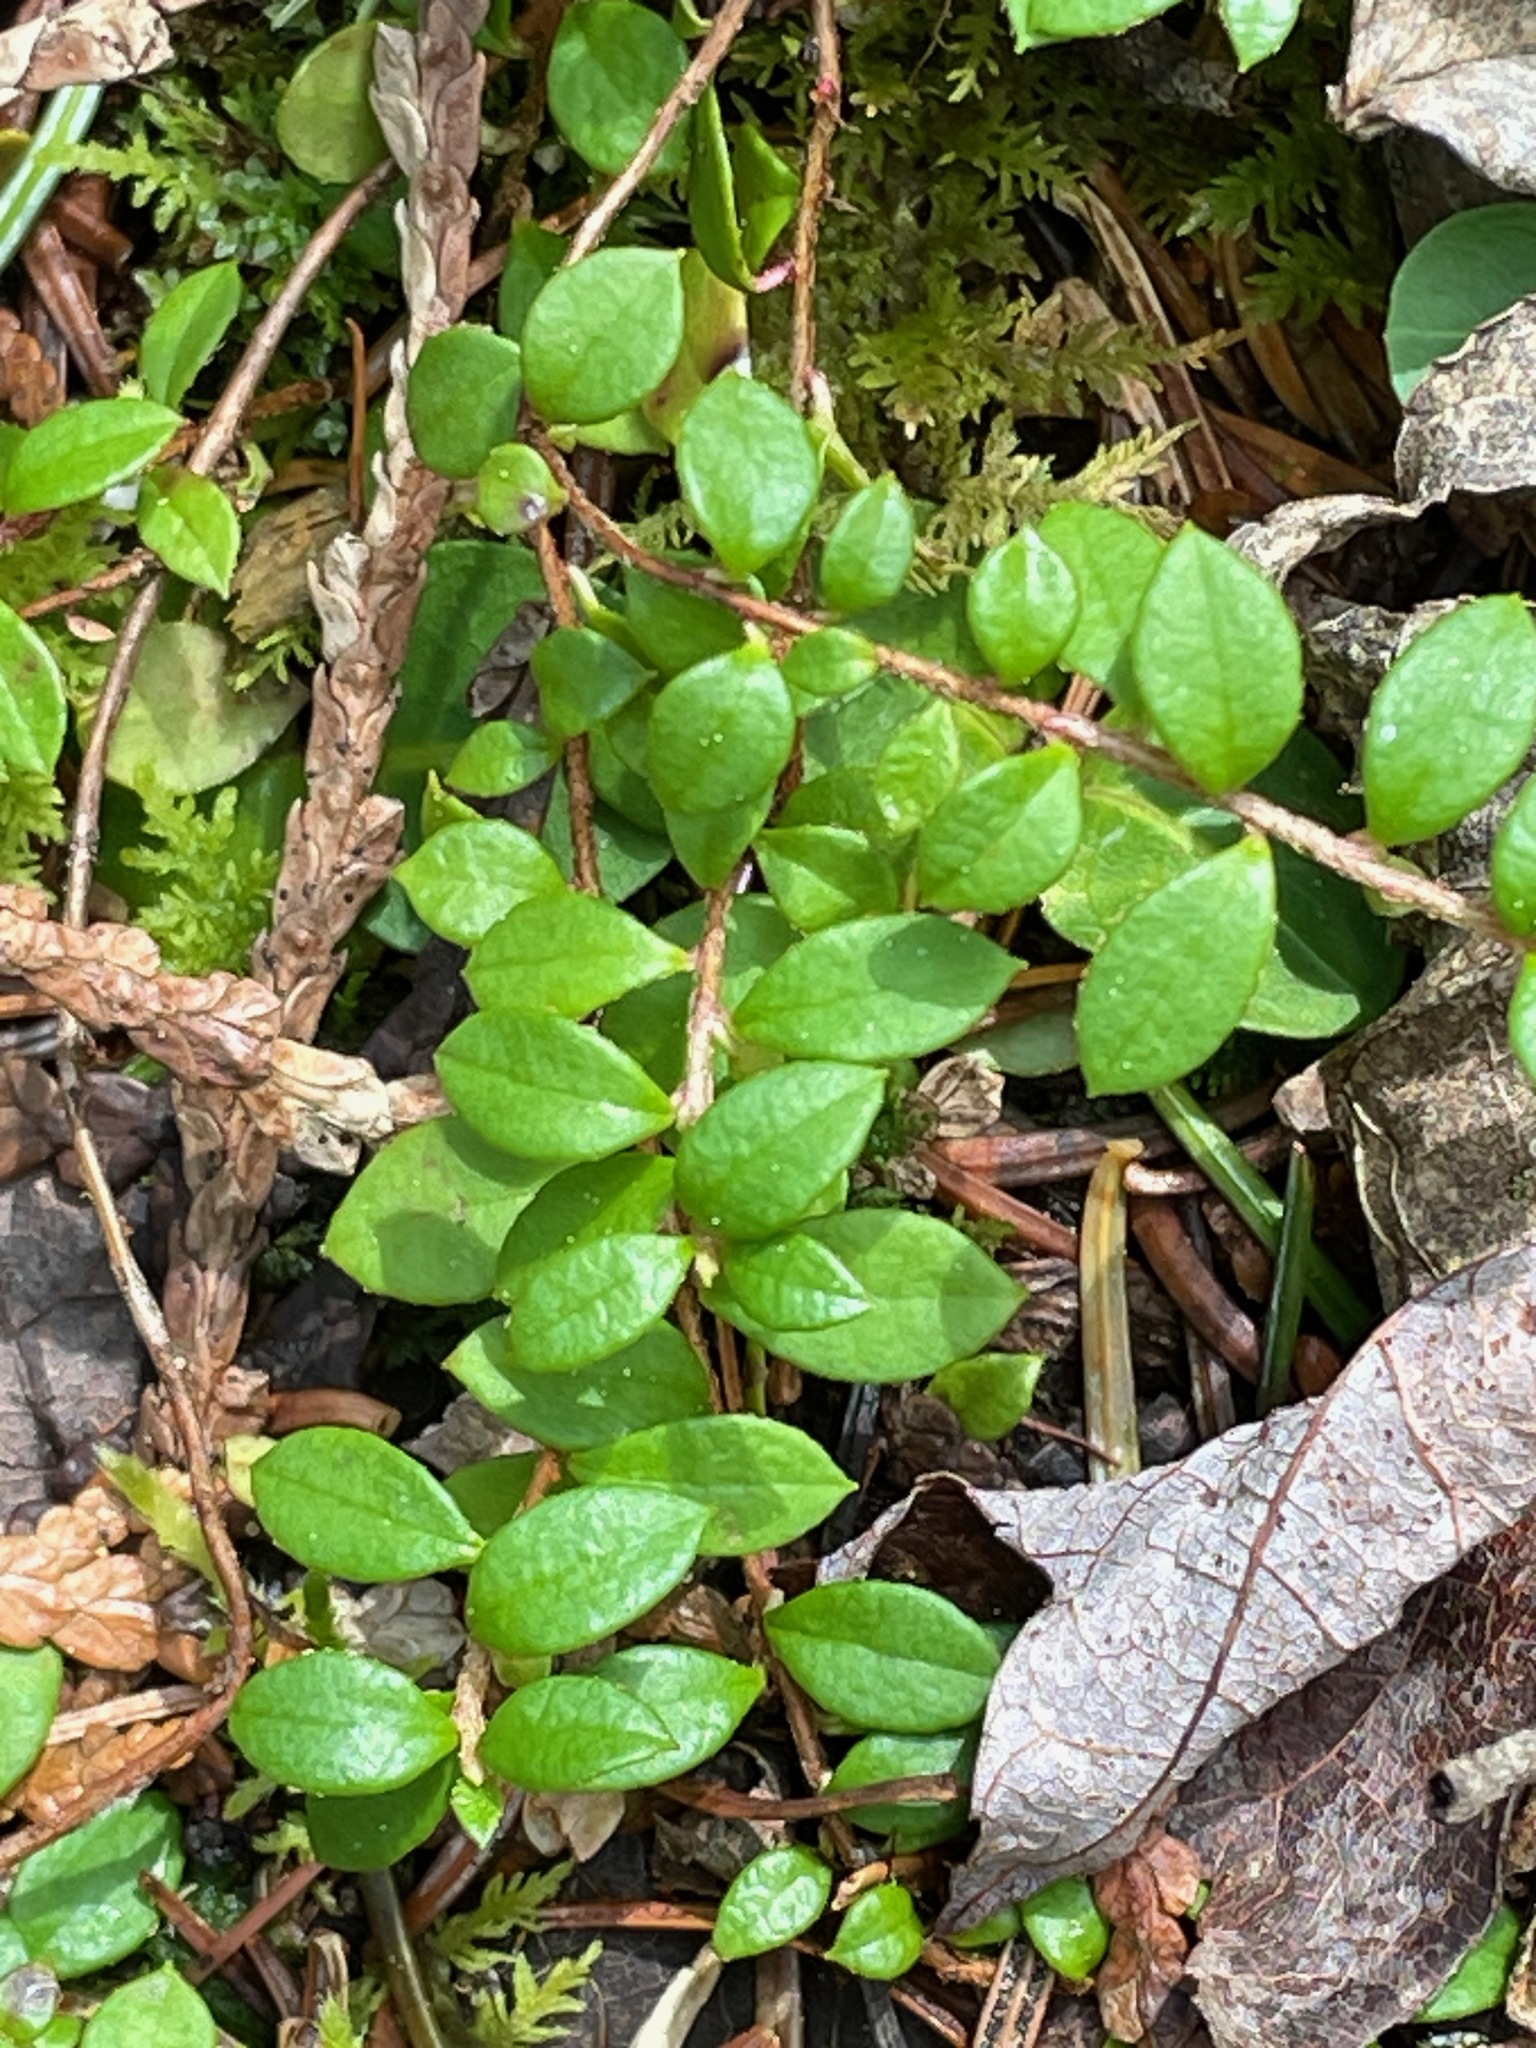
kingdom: Plantae
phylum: Tracheophyta
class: Magnoliopsida
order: Ericales
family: Ericaceae
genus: Gaultheria
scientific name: Gaultheria hispidula
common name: Cancer wintergreen
